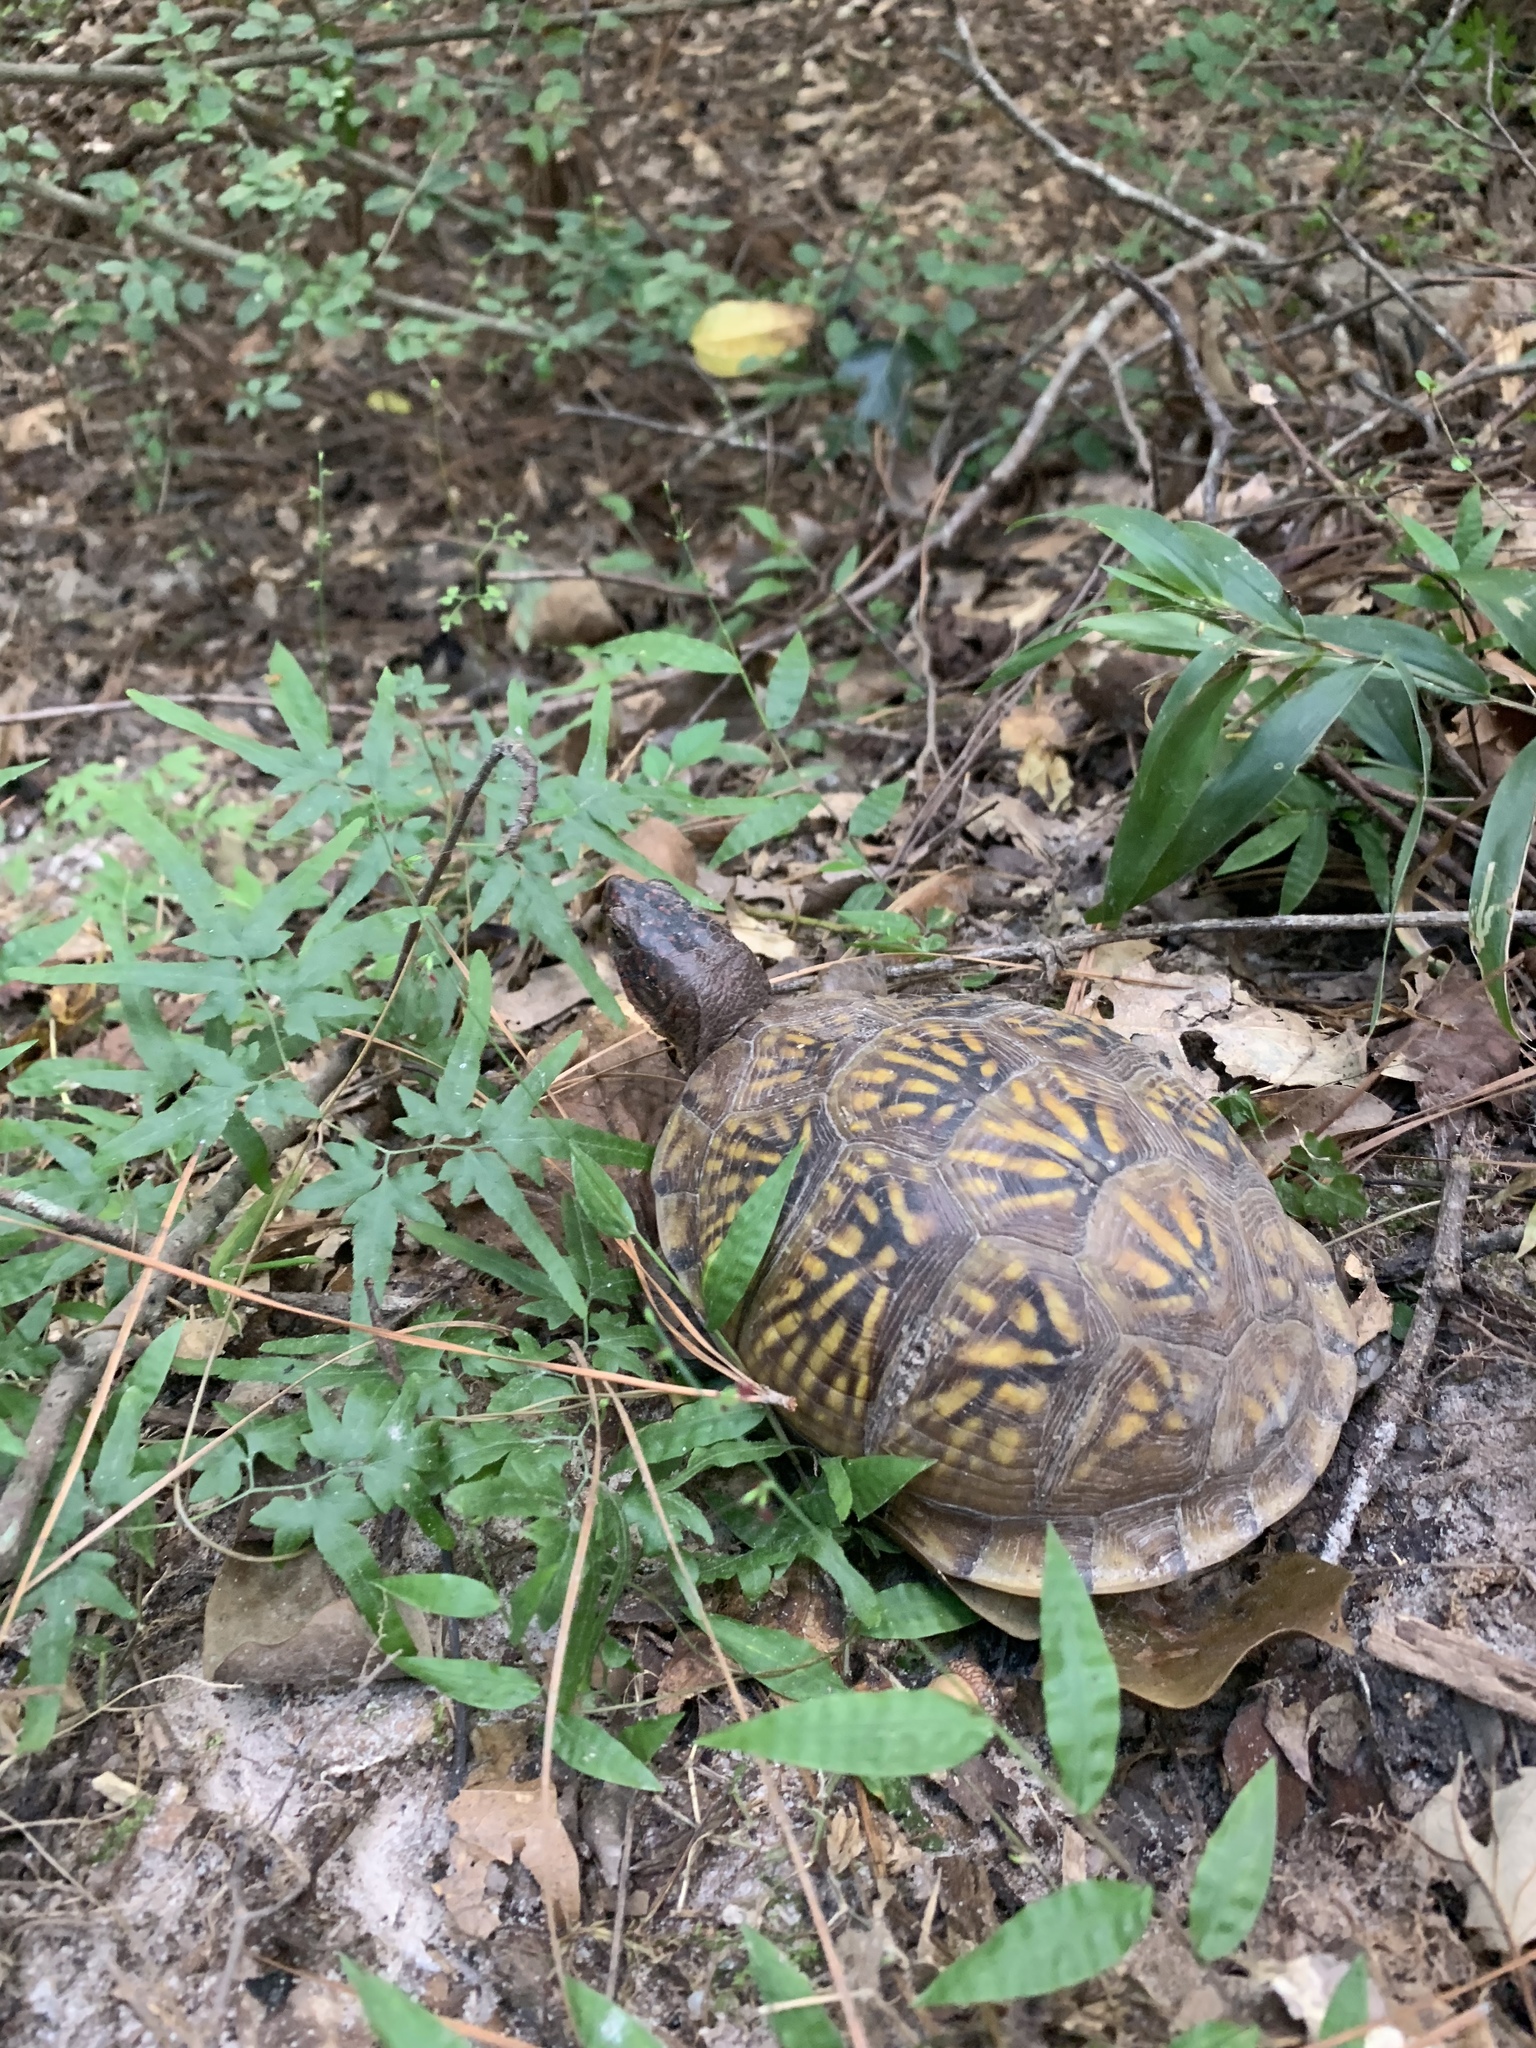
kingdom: Animalia
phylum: Chordata
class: Testudines
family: Emydidae
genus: Terrapene
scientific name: Terrapene carolina
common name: Common box turtle
